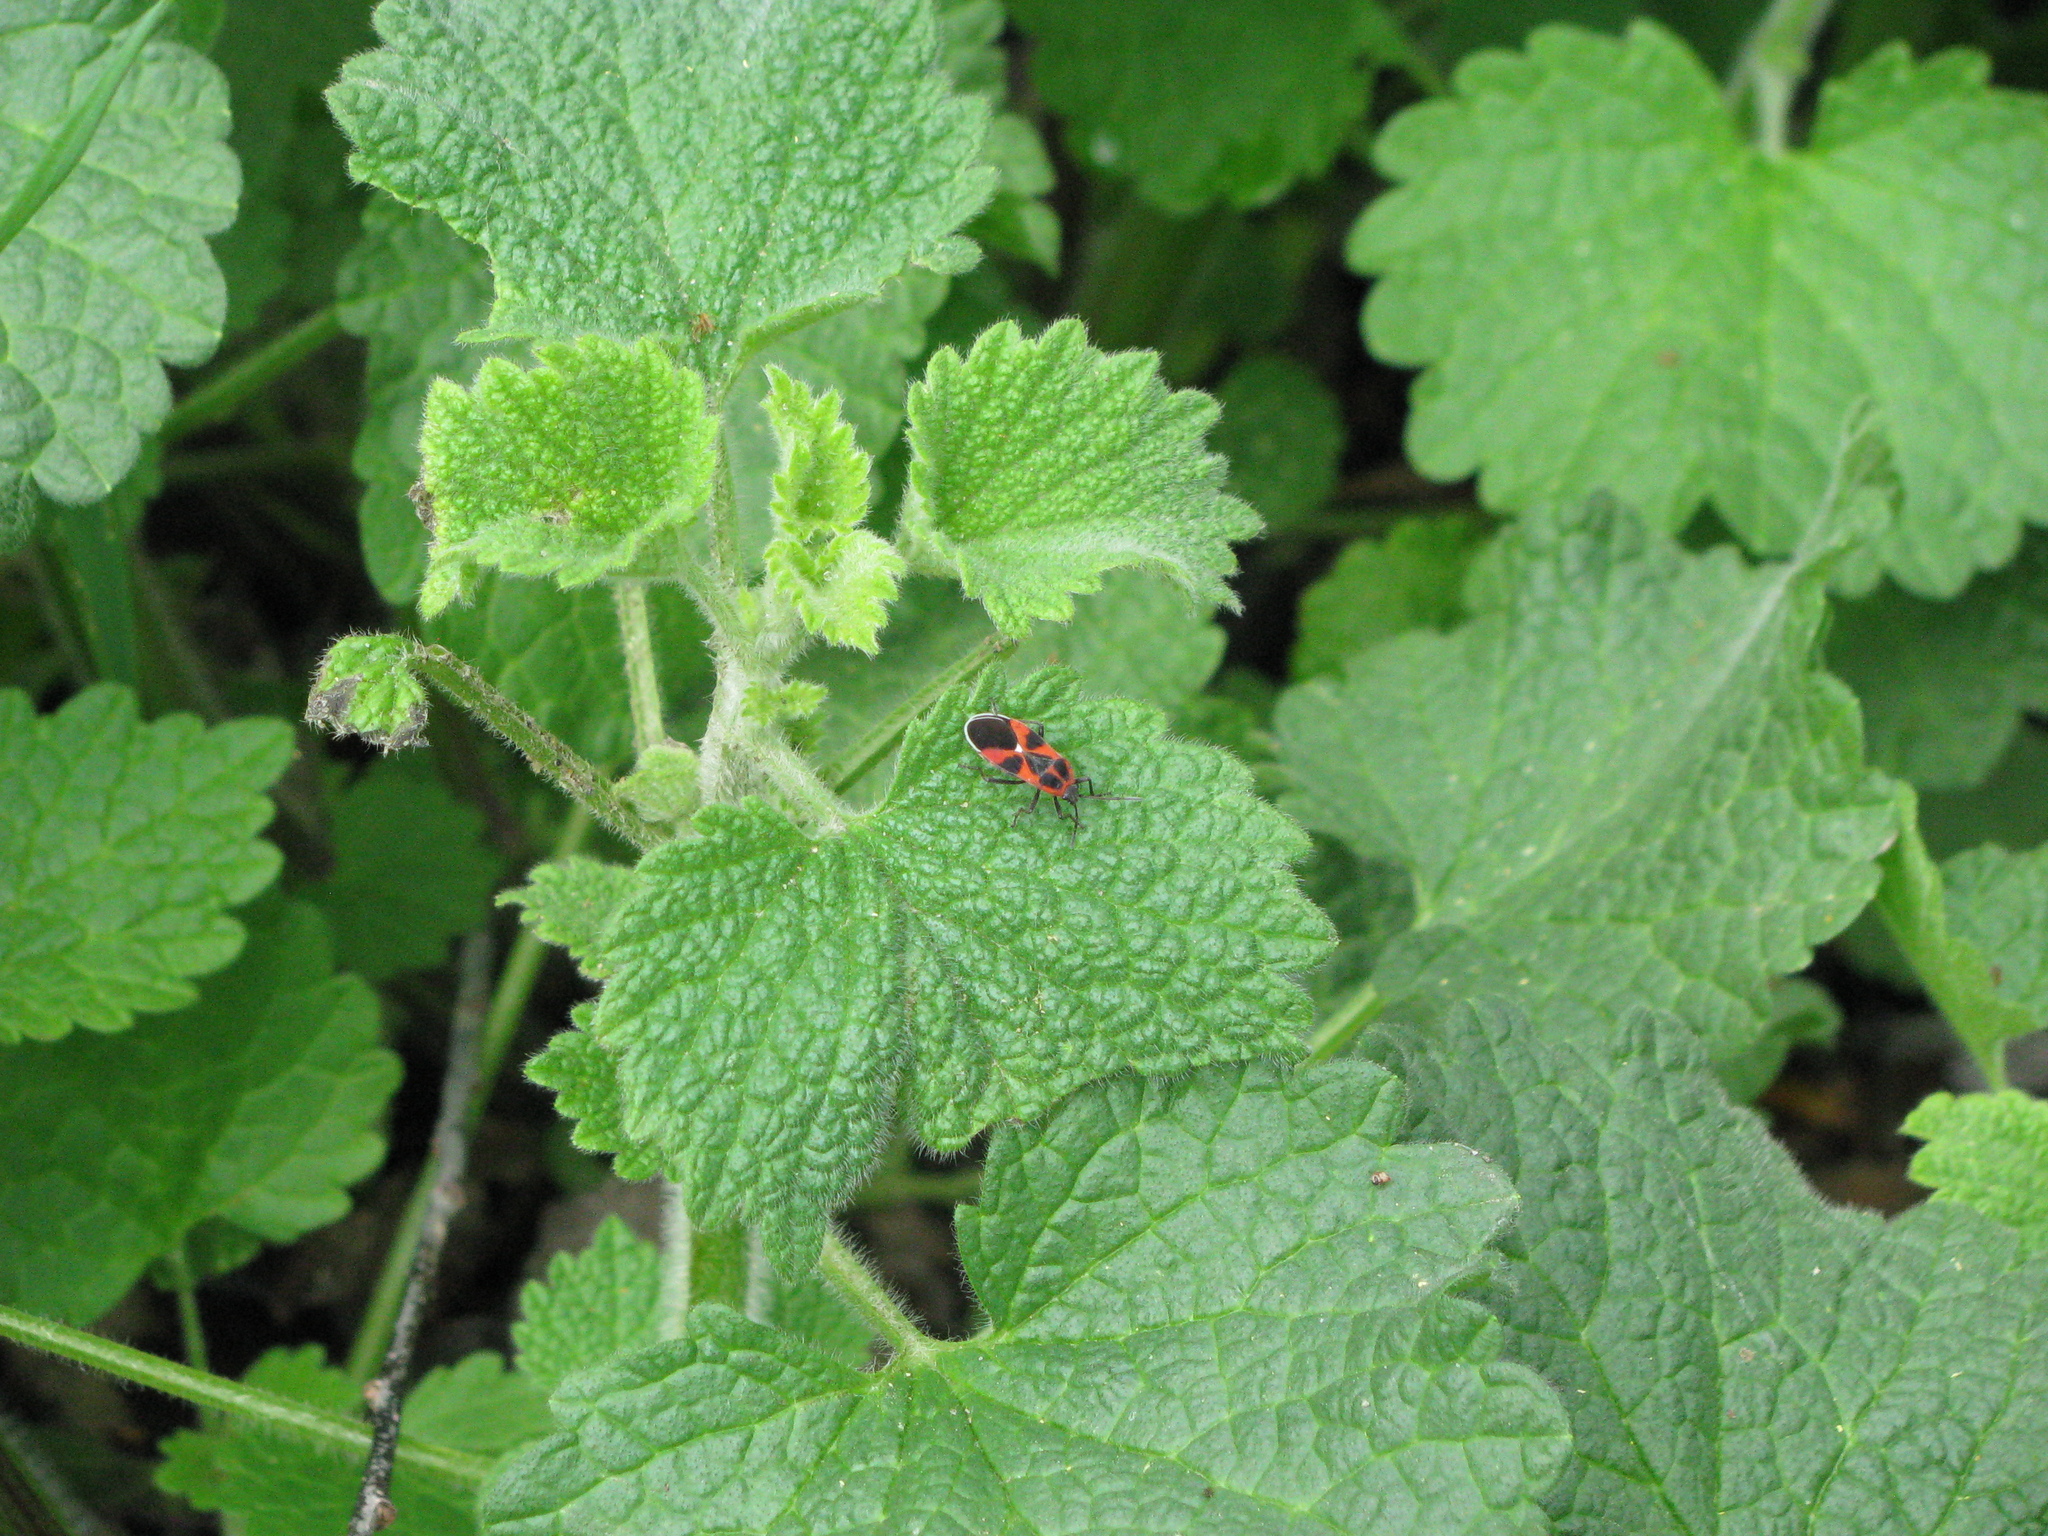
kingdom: Animalia
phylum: Arthropoda
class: Insecta
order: Hemiptera
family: Lygaeidae
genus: Tropidothorax
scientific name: Tropidothorax leucopterus
